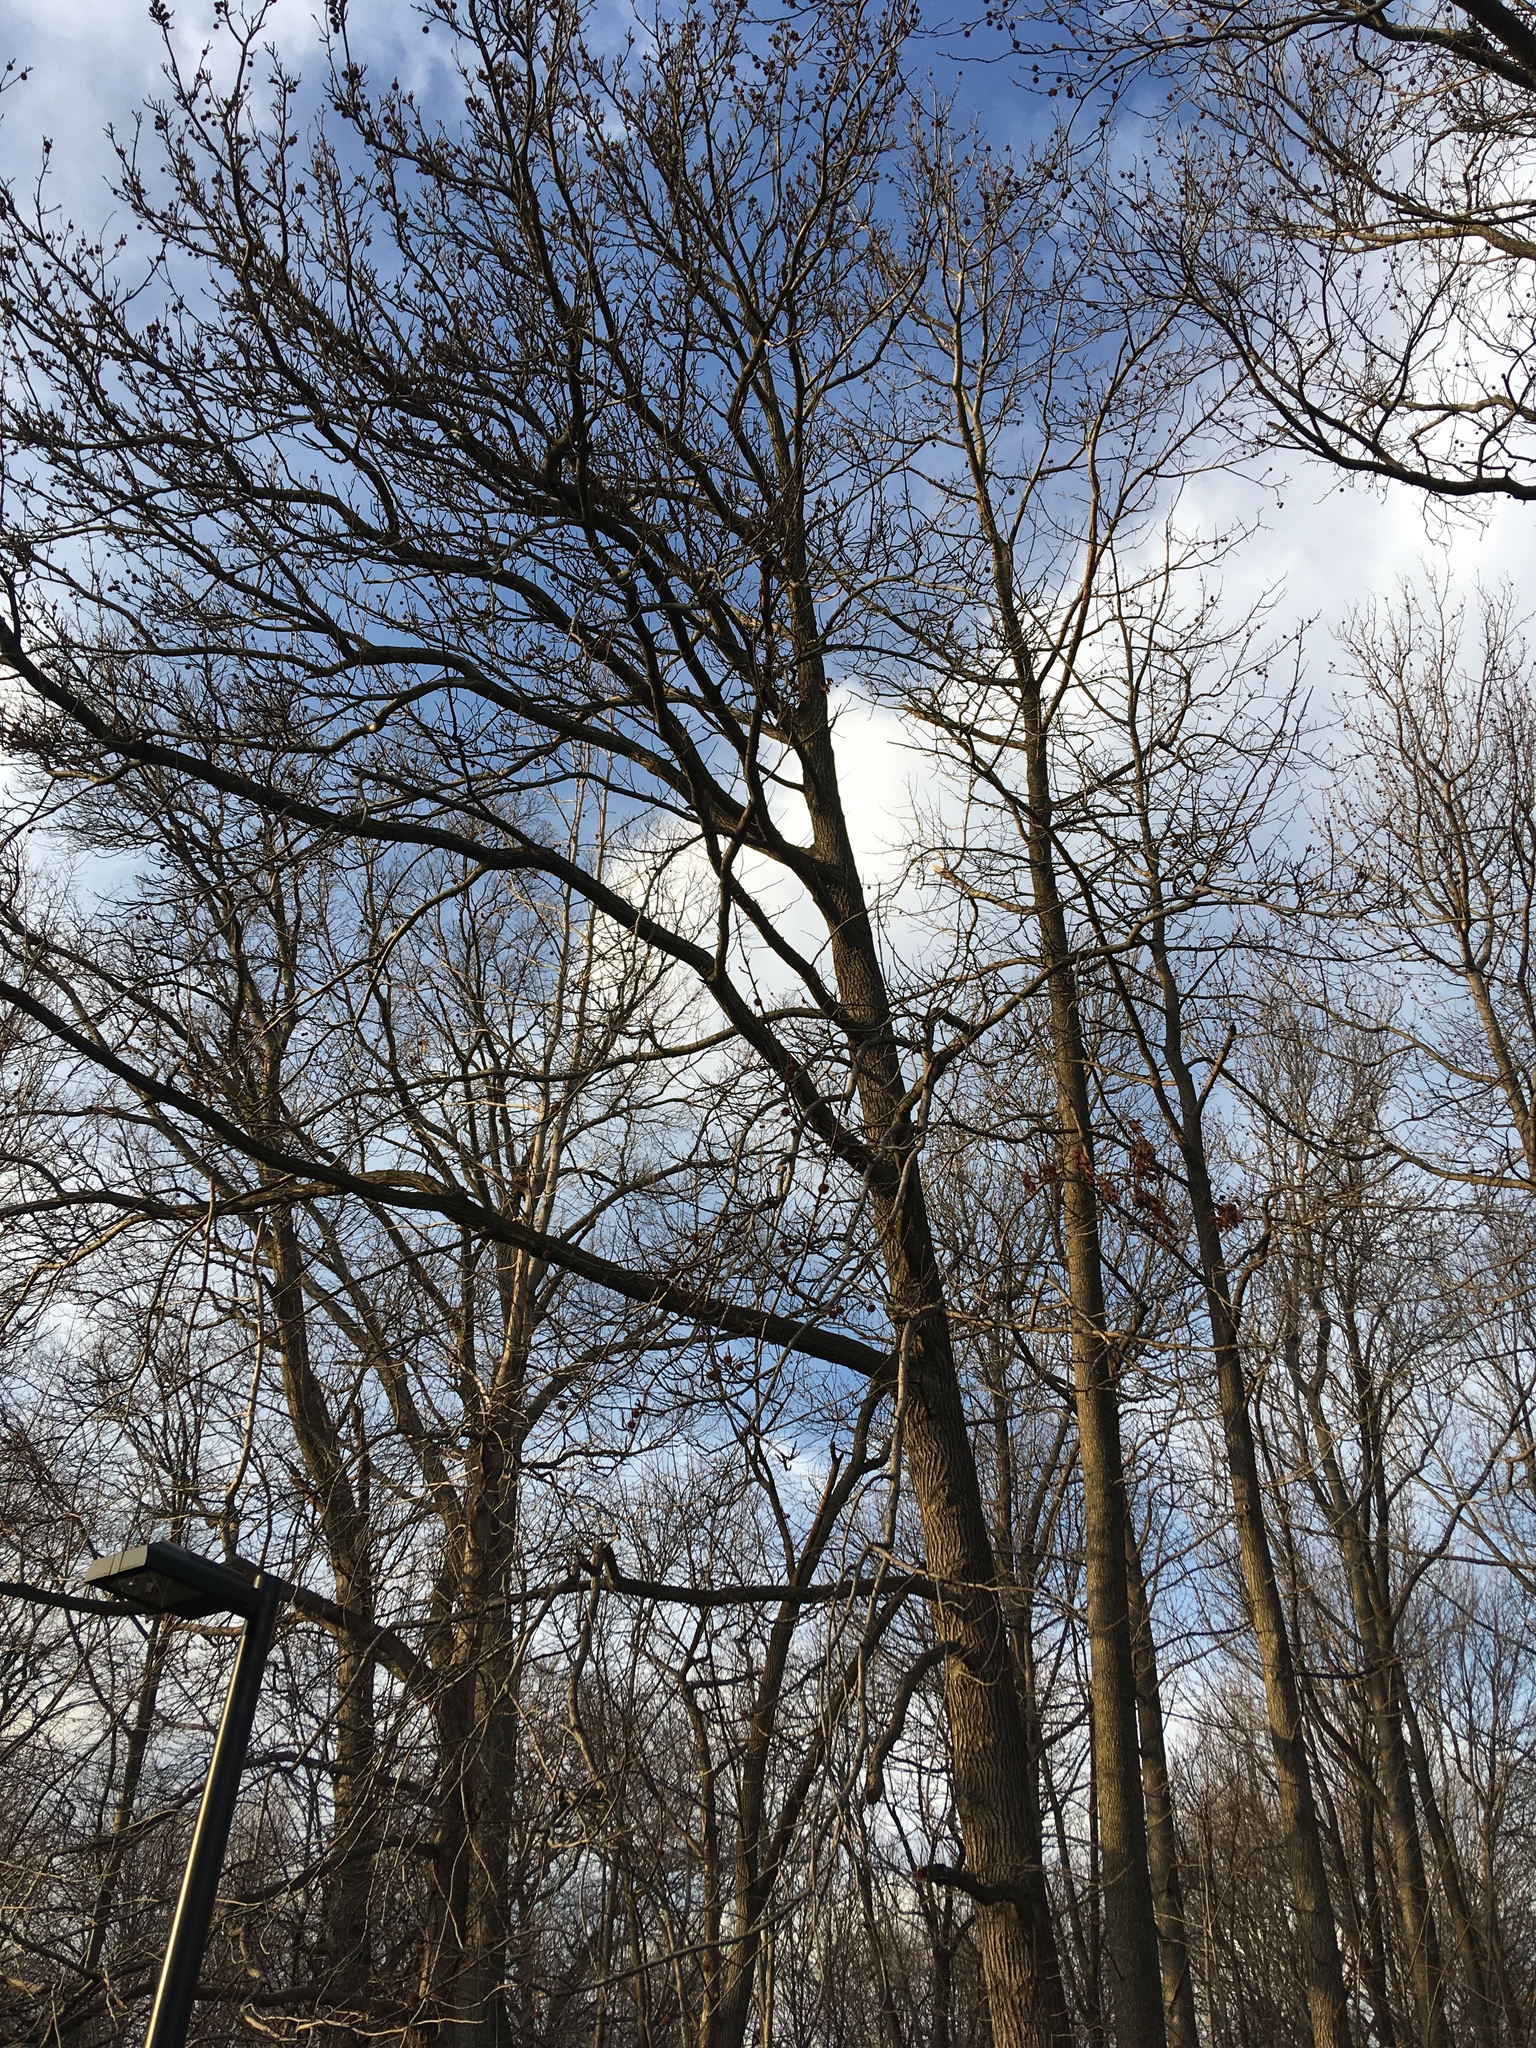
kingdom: Plantae
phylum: Tracheophyta
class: Magnoliopsida
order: Saxifragales
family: Altingiaceae
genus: Liquidambar
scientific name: Liquidambar styraciflua
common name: Sweet gum
